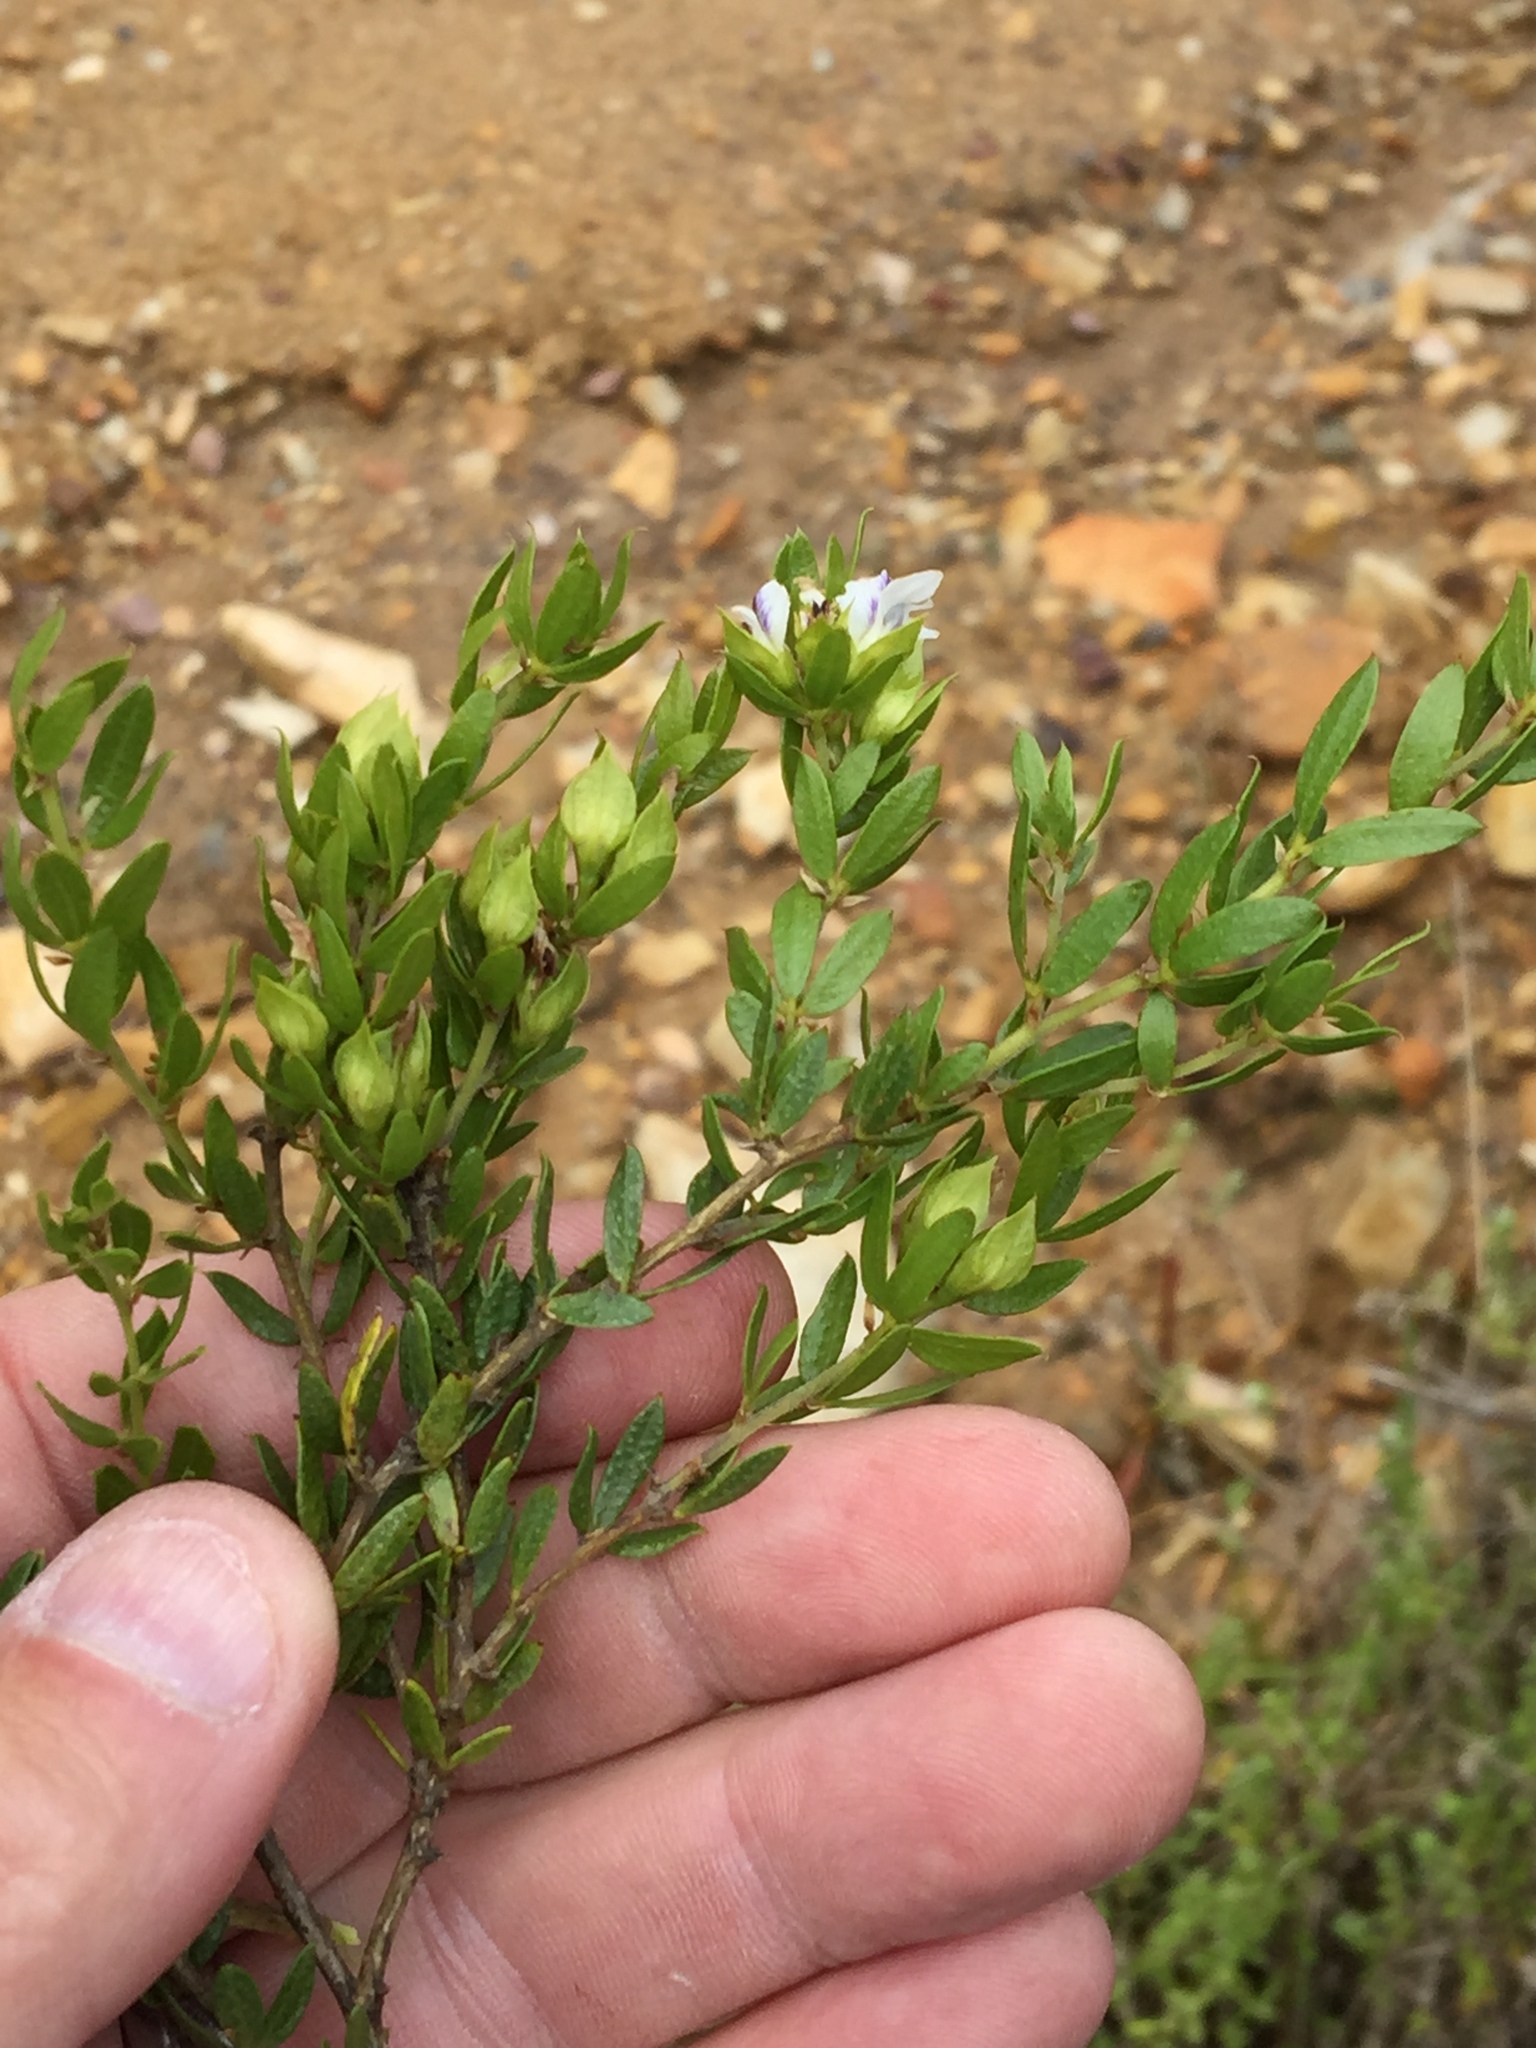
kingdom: Plantae
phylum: Tracheophyta
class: Magnoliopsida
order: Fabales
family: Fabaceae
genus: Psoralea
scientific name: Psoralea heterosepala
